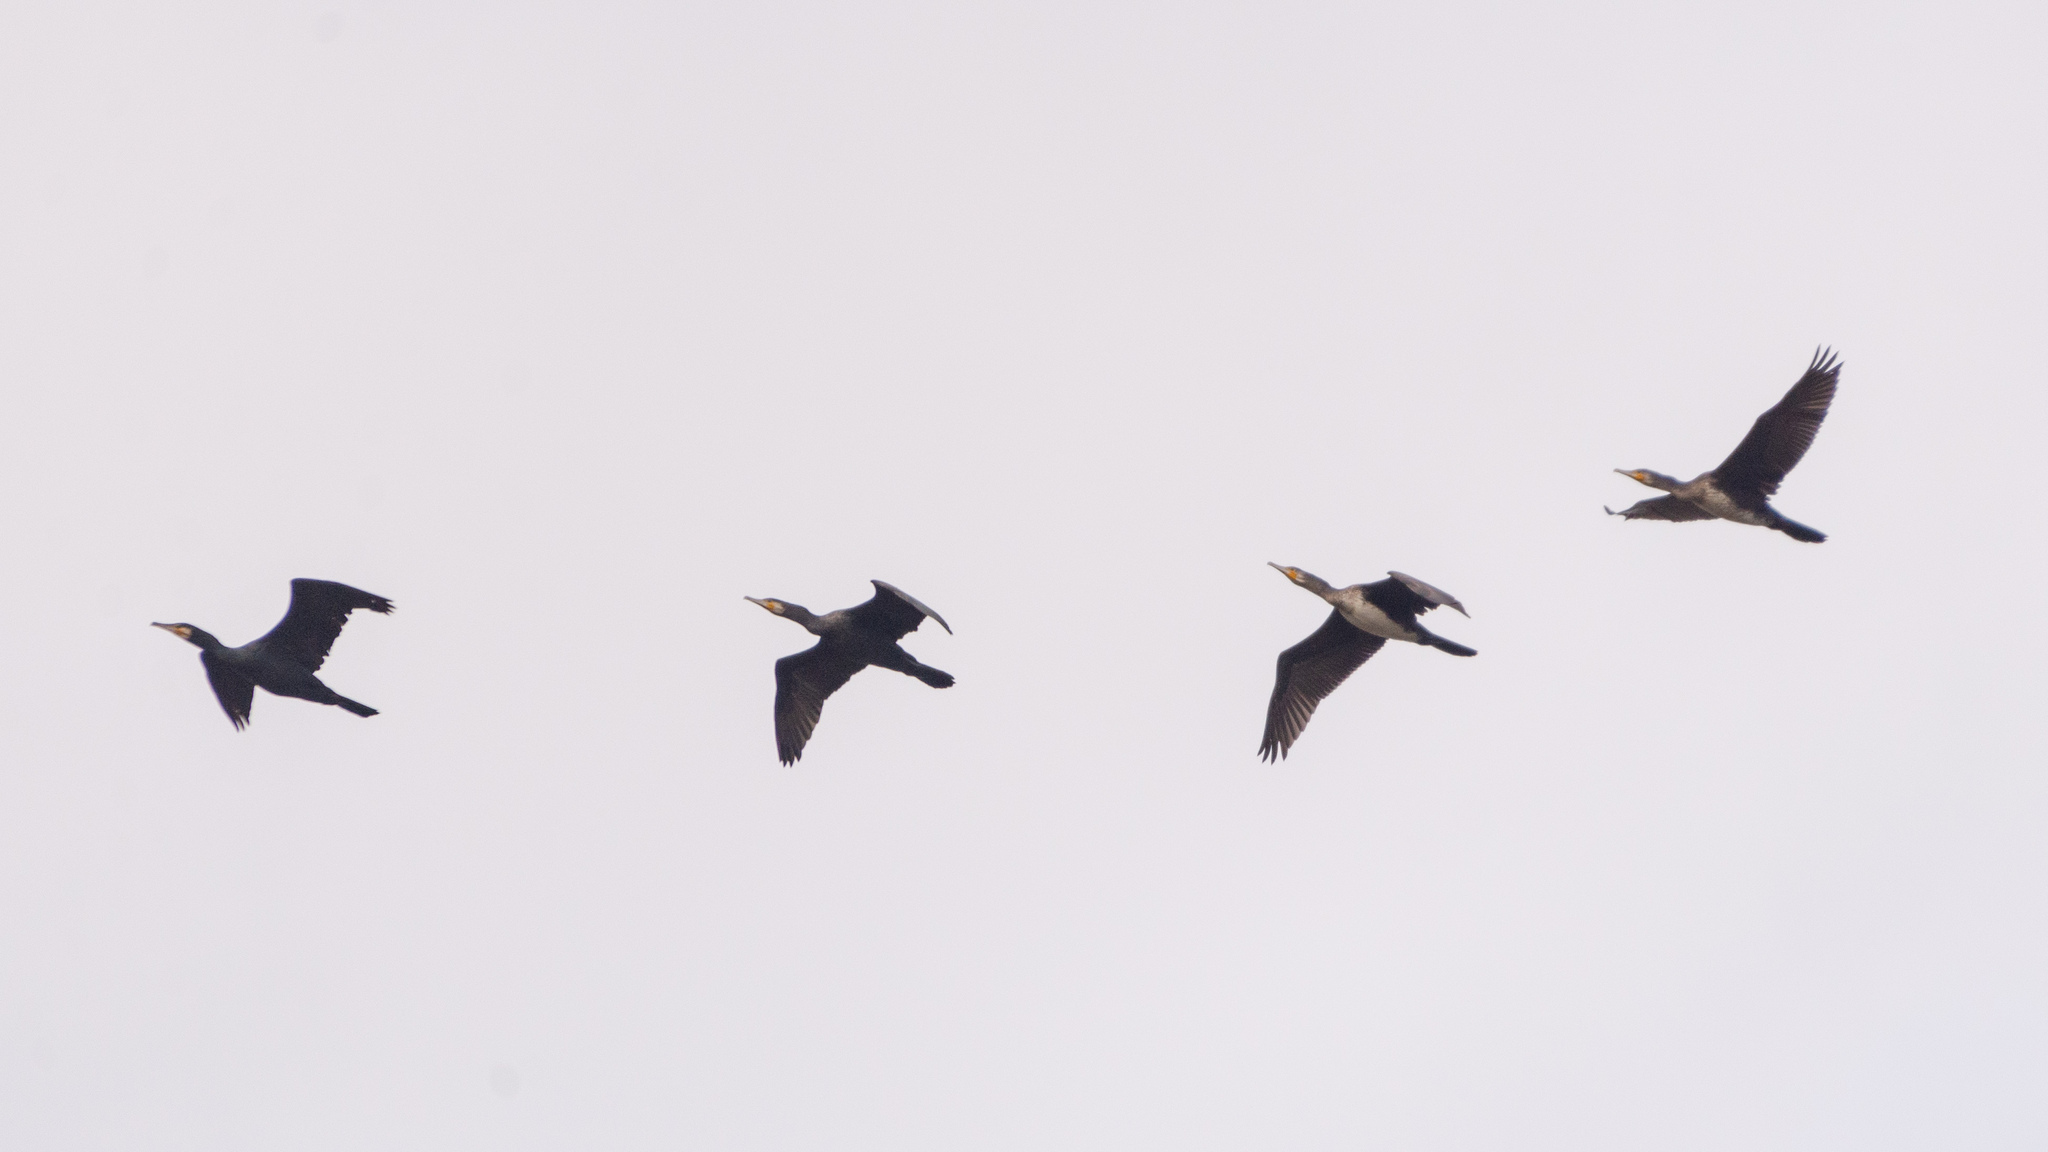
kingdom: Animalia
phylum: Chordata
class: Aves
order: Suliformes
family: Phalacrocoracidae
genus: Phalacrocorax
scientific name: Phalacrocorax carbo
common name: Great cormorant
